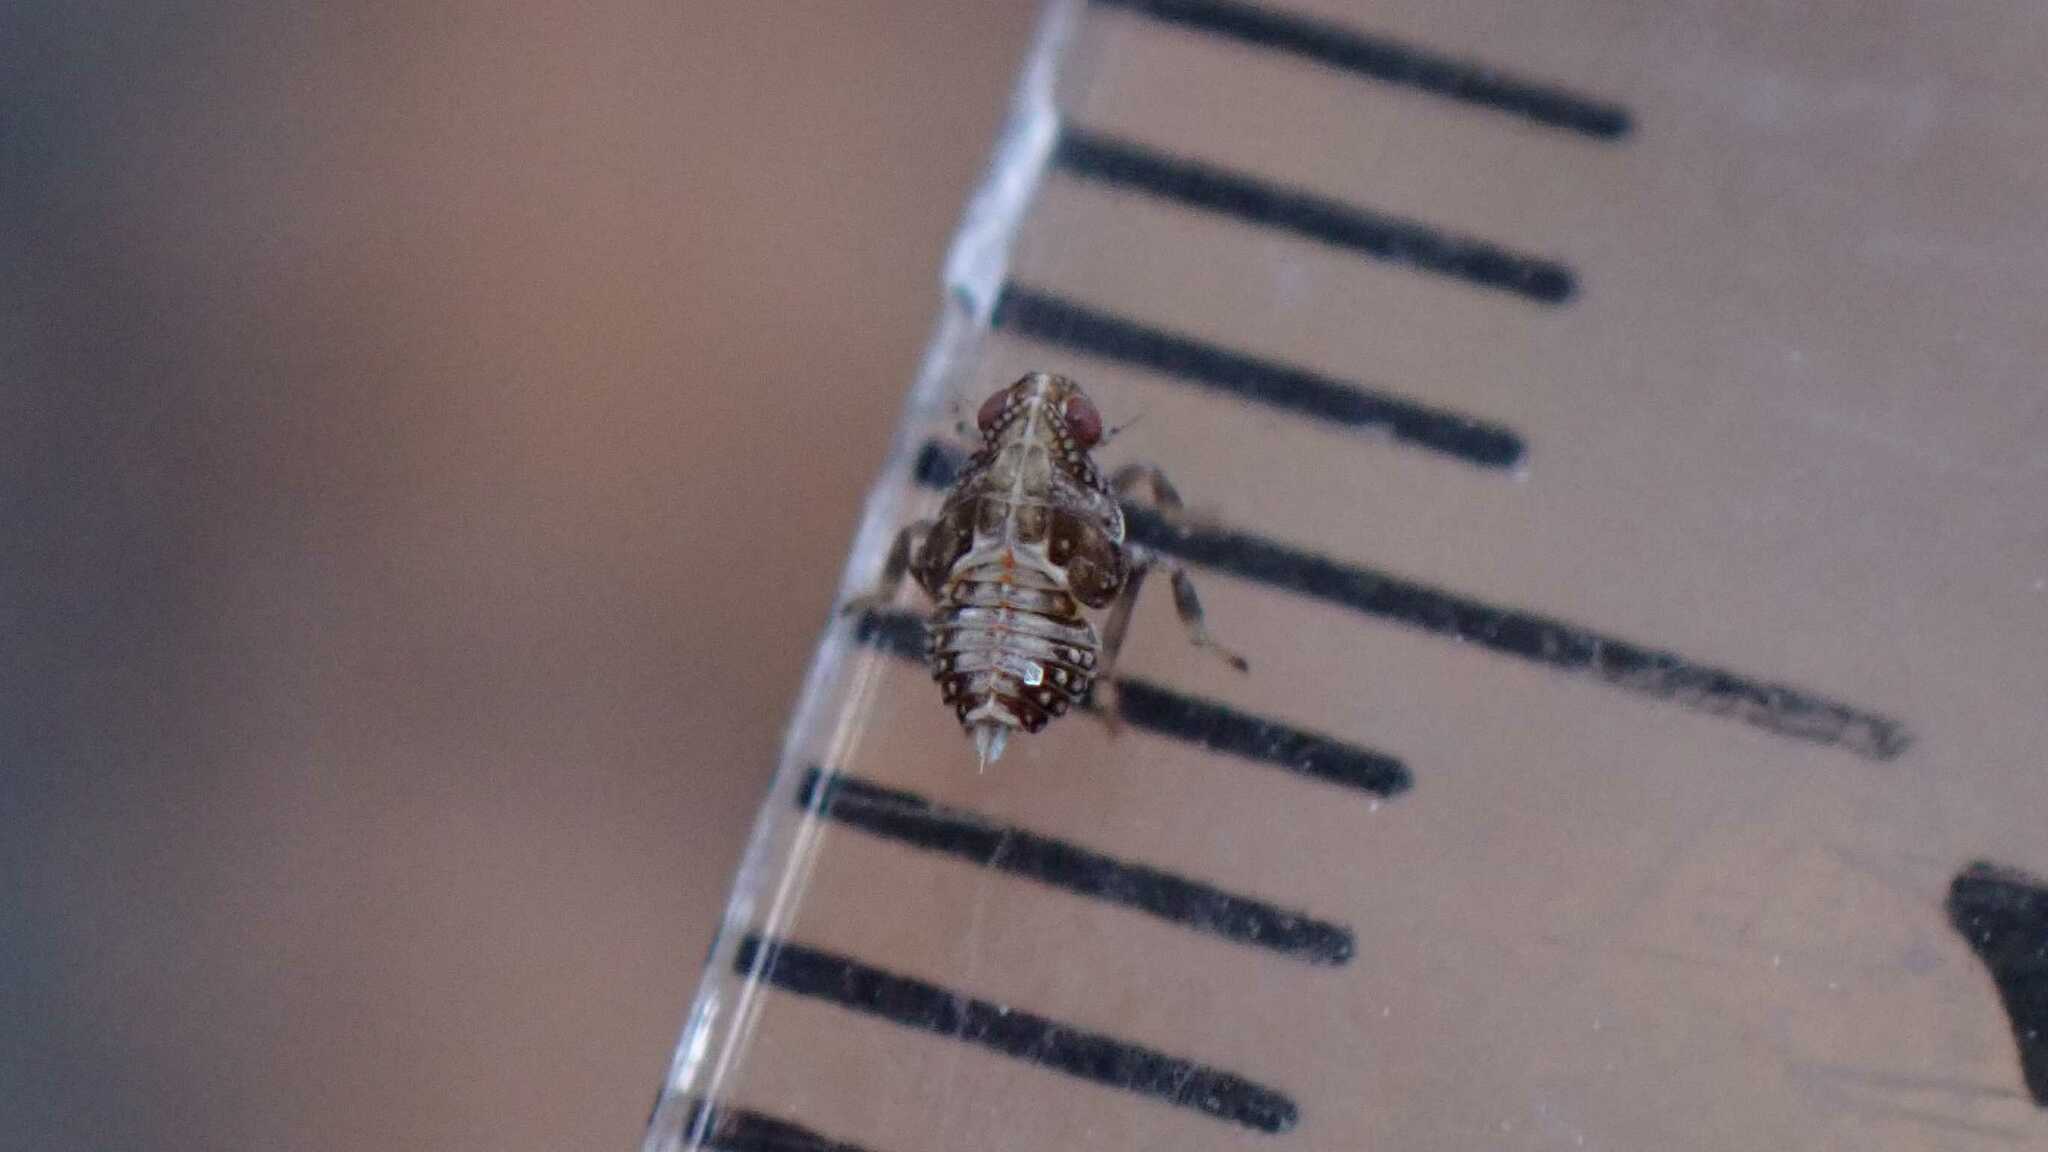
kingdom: Animalia
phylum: Arthropoda
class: Insecta
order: Hemiptera
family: Issidae
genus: Issus
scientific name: Issus
